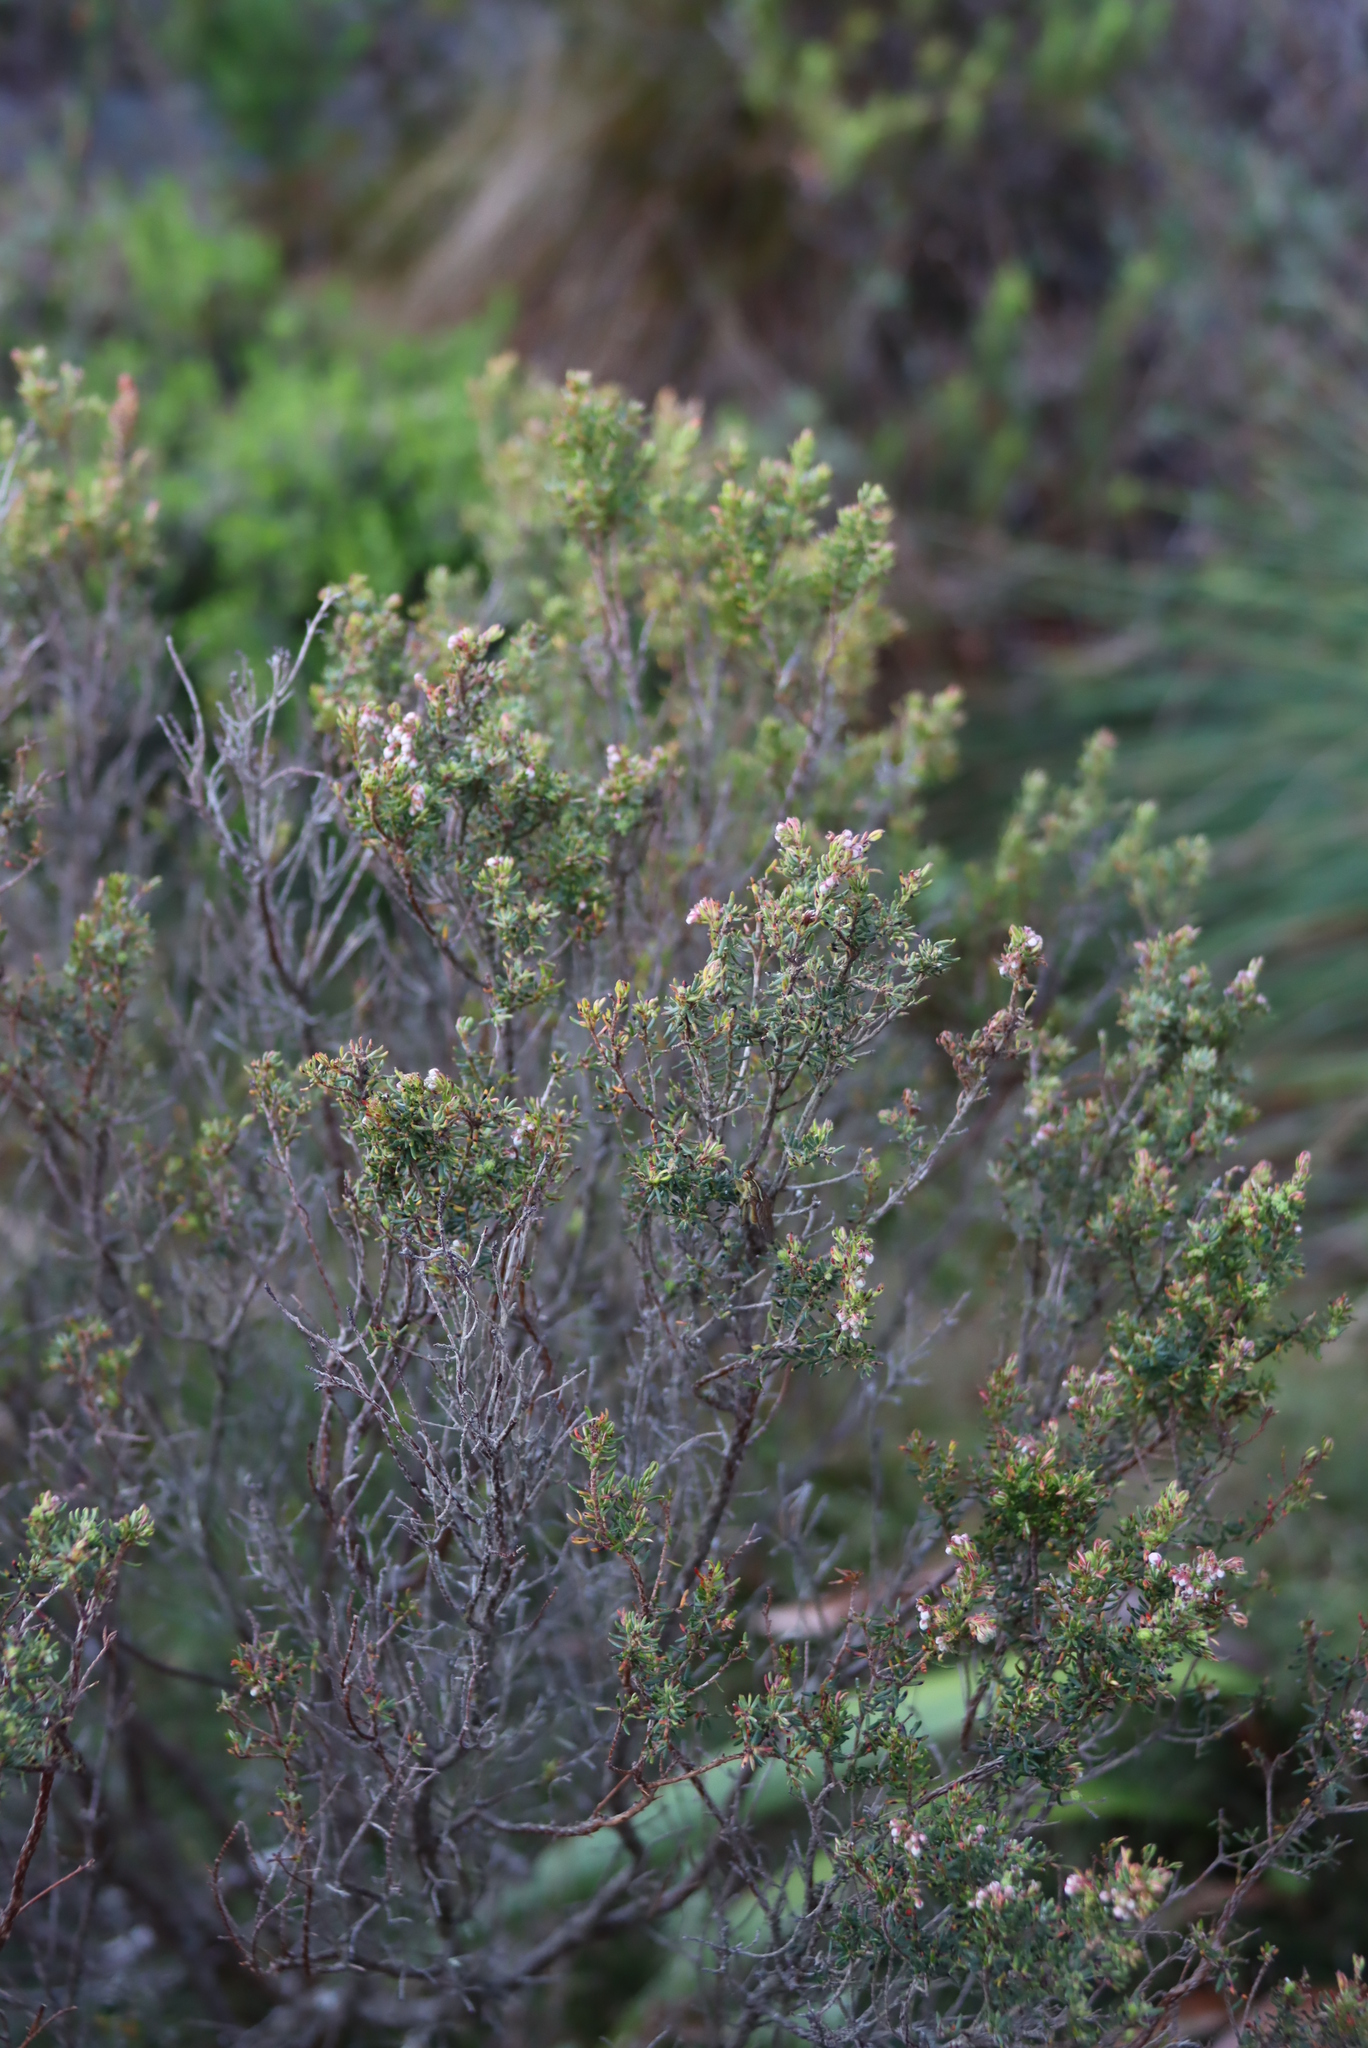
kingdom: Plantae
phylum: Tracheophyta
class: Magnoliopsida
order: Ericales
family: Ericaceae
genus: Erica
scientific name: Erica caterviflora
